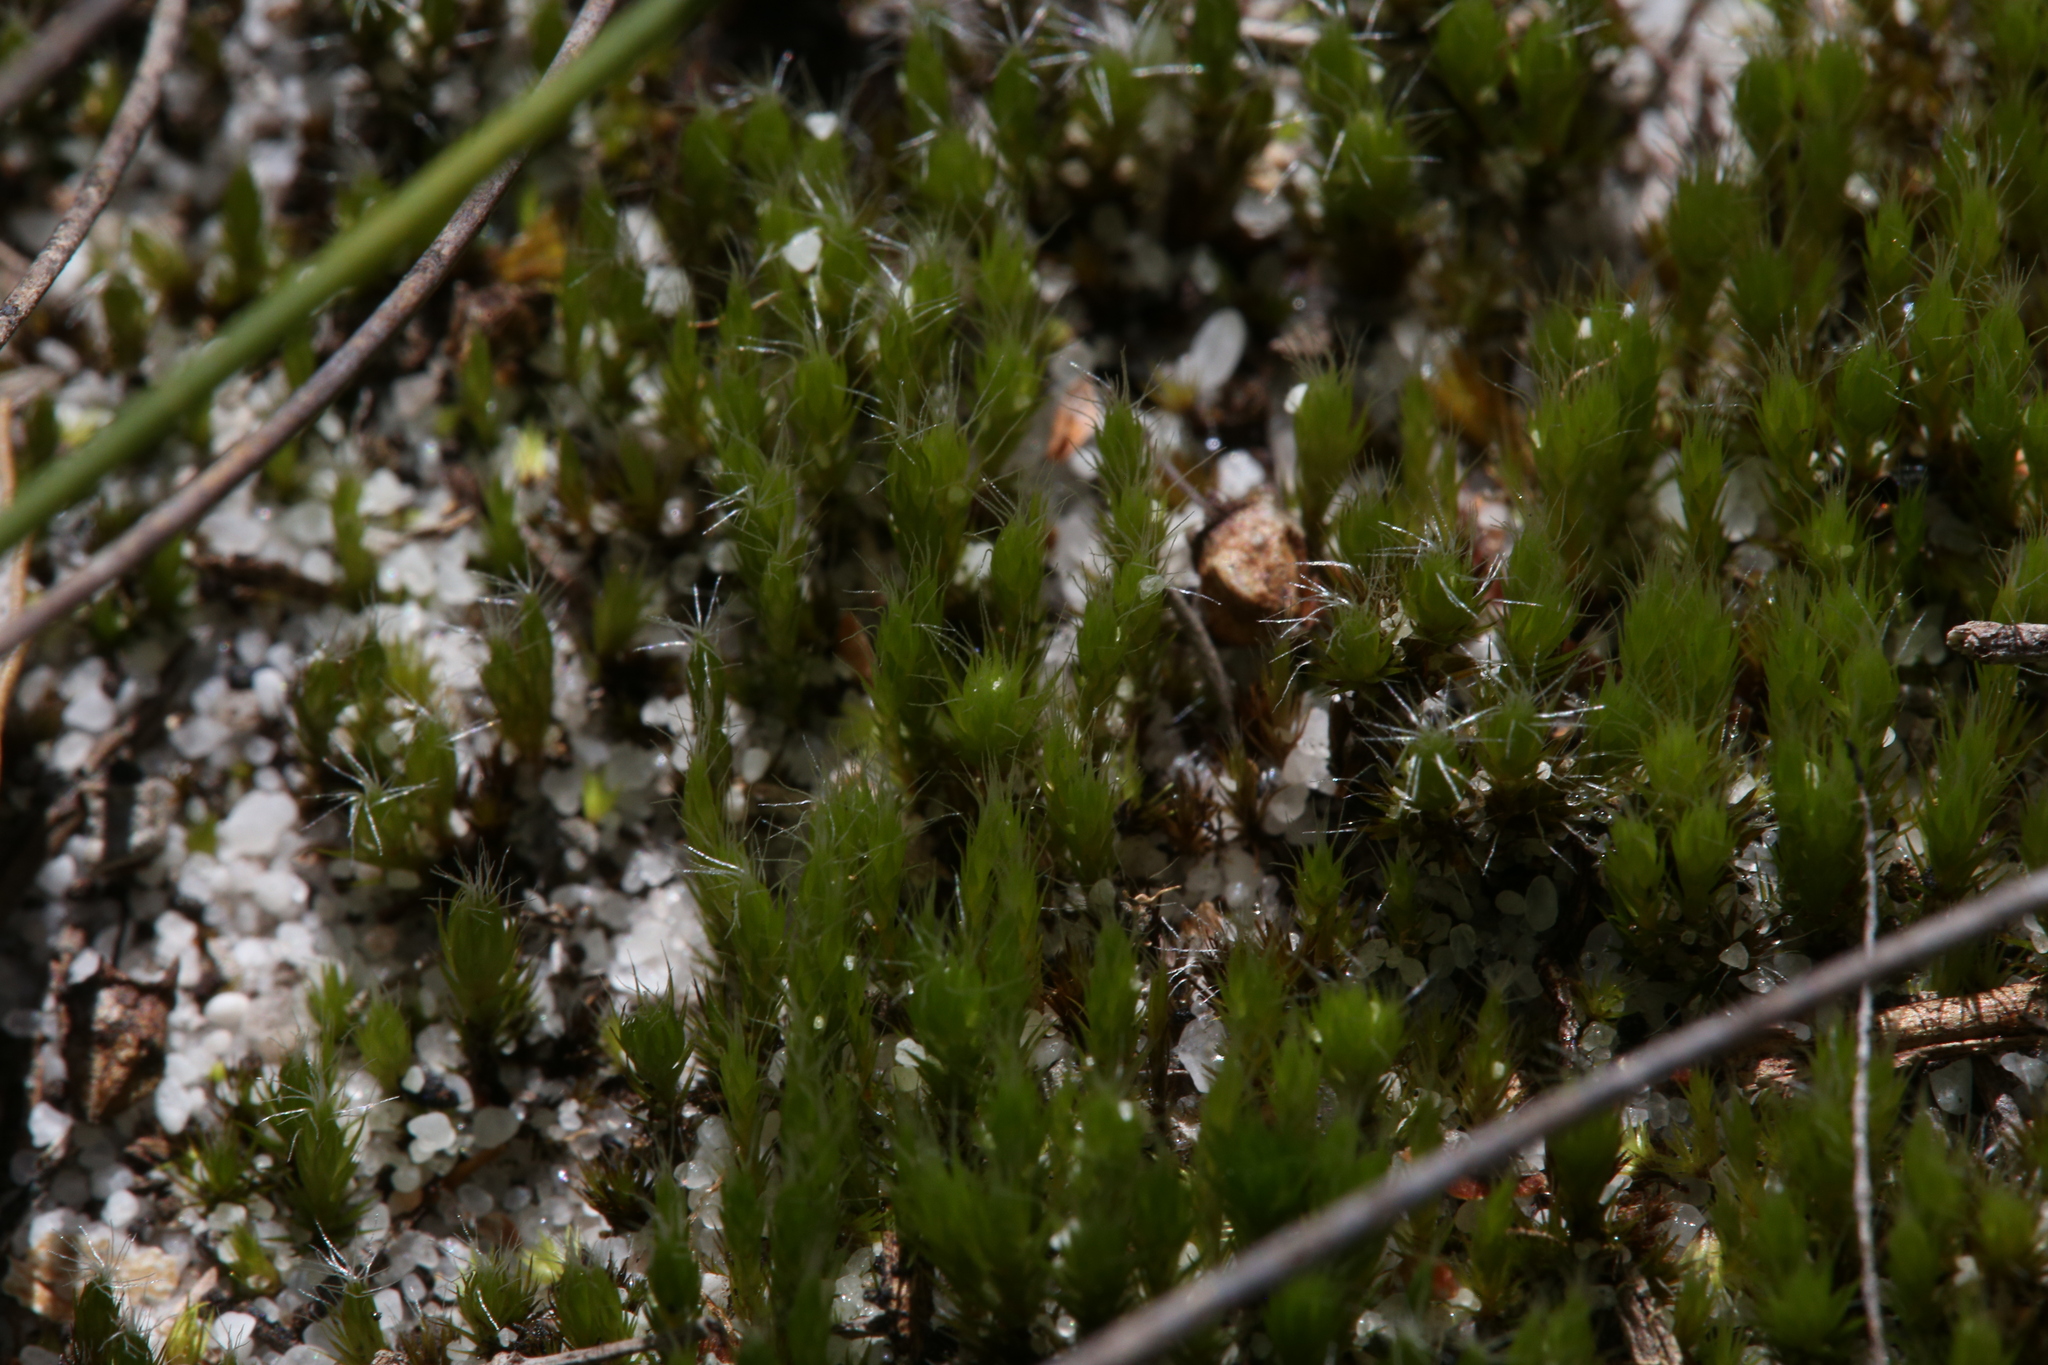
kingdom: Plantae
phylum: Bryophyta
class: Bryopsida
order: Dicranales
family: Leucobryaceae
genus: Campylopus
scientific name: Campylopus introflexus
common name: Heath star moss
